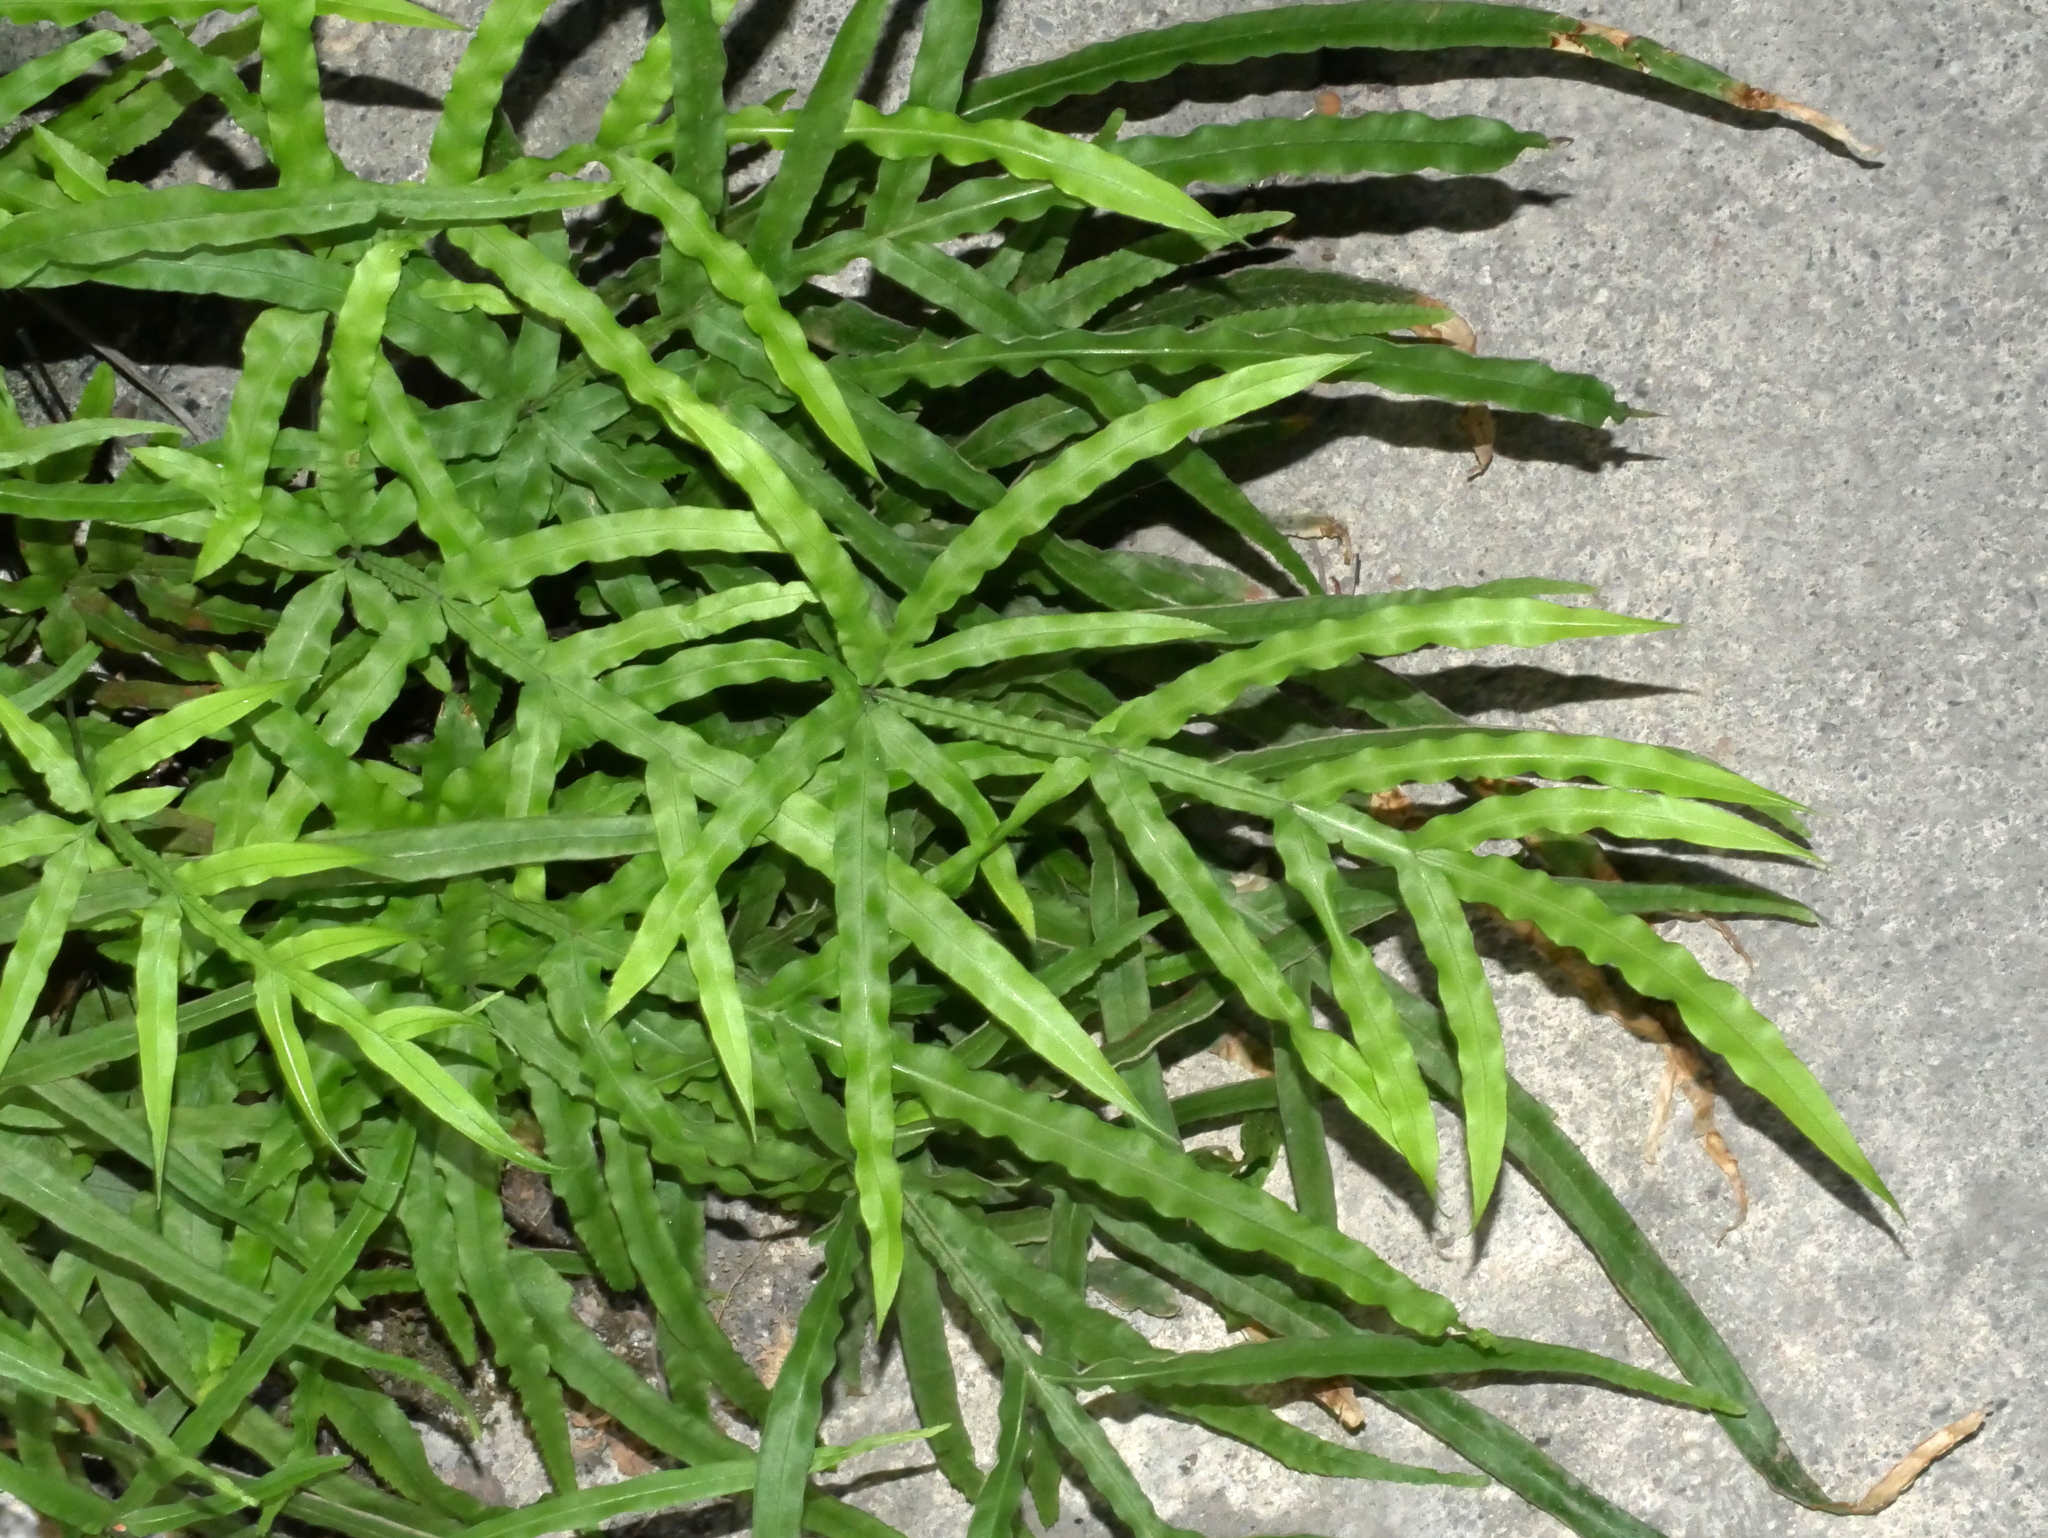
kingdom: Plantae
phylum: Tracheophyta
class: Polypodiopsida
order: Polypodiales
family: Pteridaceae
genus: Pteris
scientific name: Pteris multifida
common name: Spider brake
